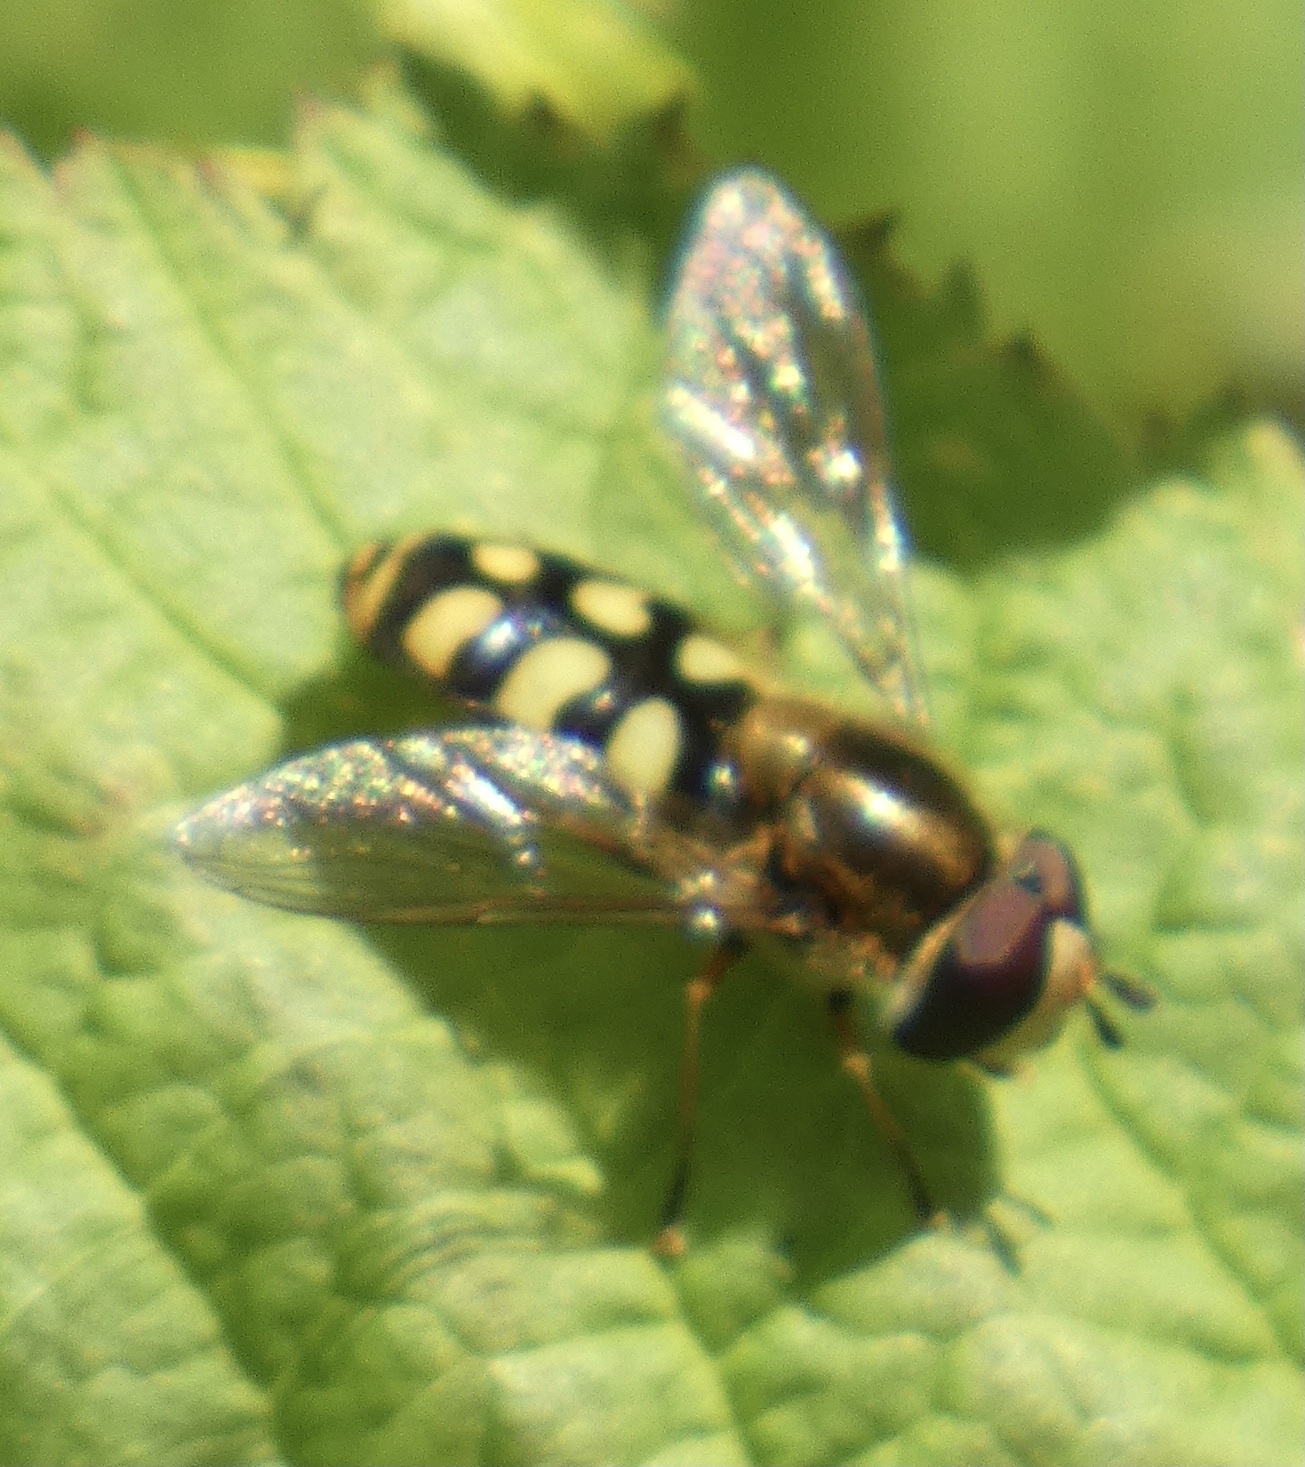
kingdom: Animalia
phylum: Arthropoda
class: Insecta
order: Diptera
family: Syrphidae
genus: Eupeodes
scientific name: Eupeodes
